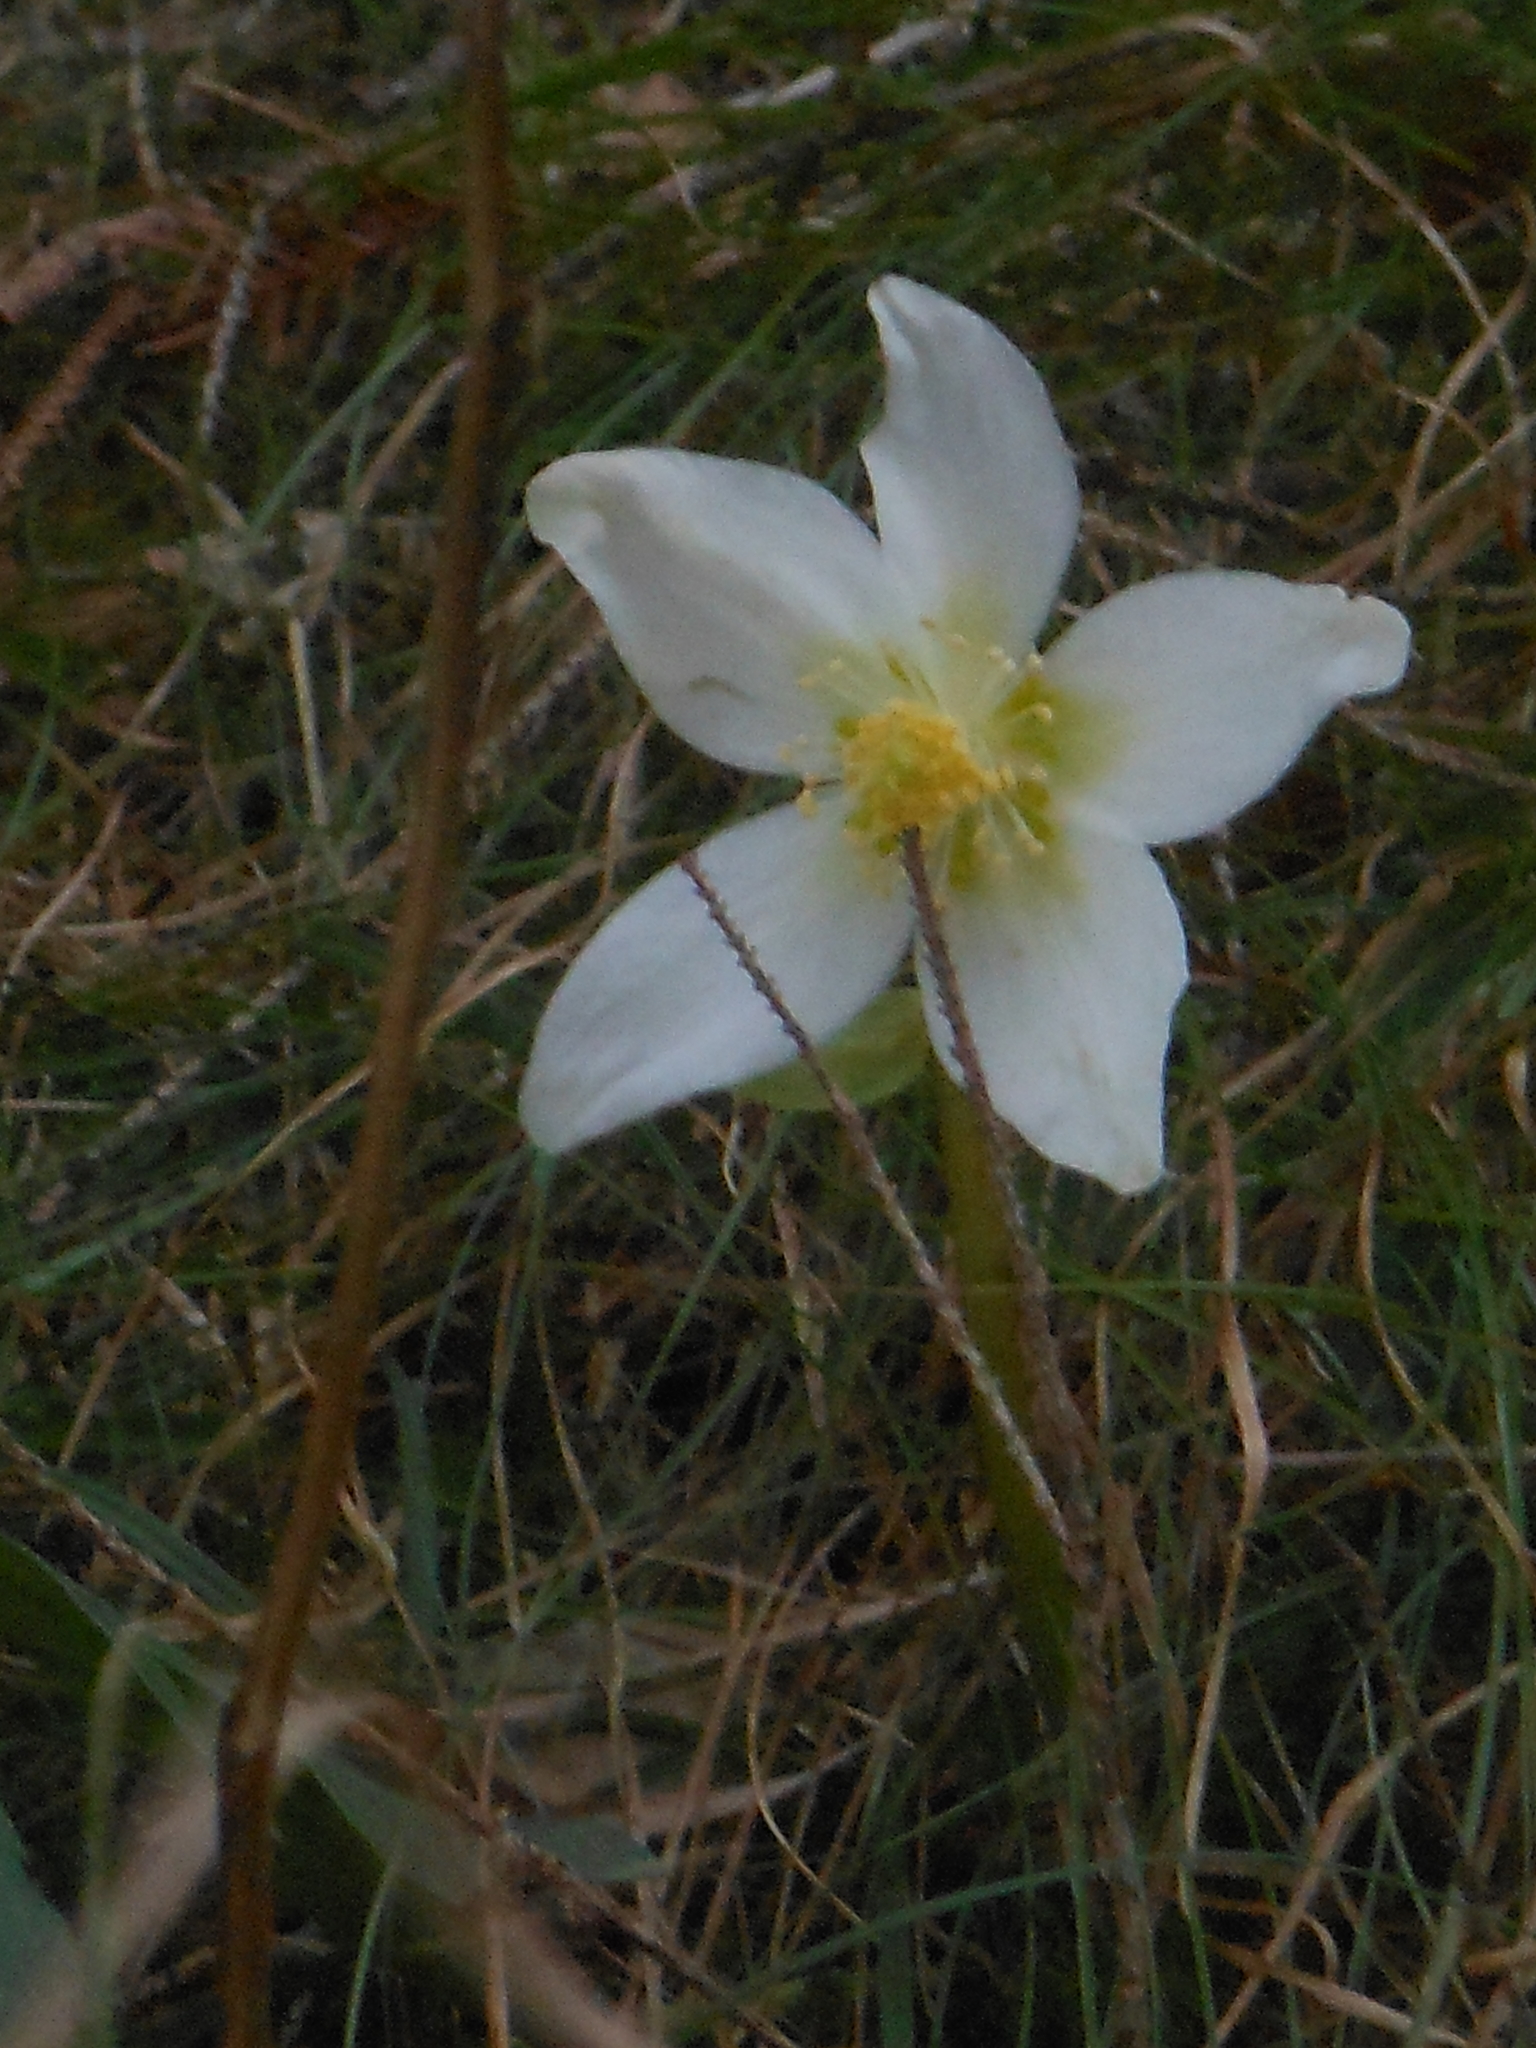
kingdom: Plantae
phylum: Tracheophyta
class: Magnoliopsida
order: Ranunculales
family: Ranunculaceae
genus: Helleborus
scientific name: Helleborus niger
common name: Black hellebore
